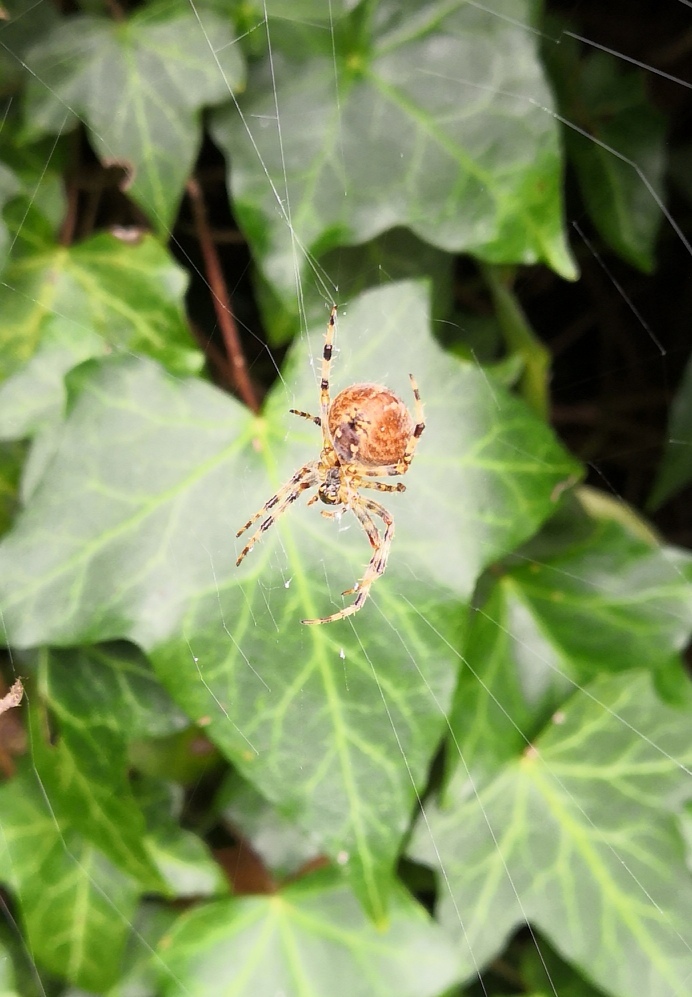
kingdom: Animalia
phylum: Arthropoda
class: Arachnida
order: Araneae
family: Araneidae
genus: Araneus
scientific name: Araneus diadematus
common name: Cross orbweaver
